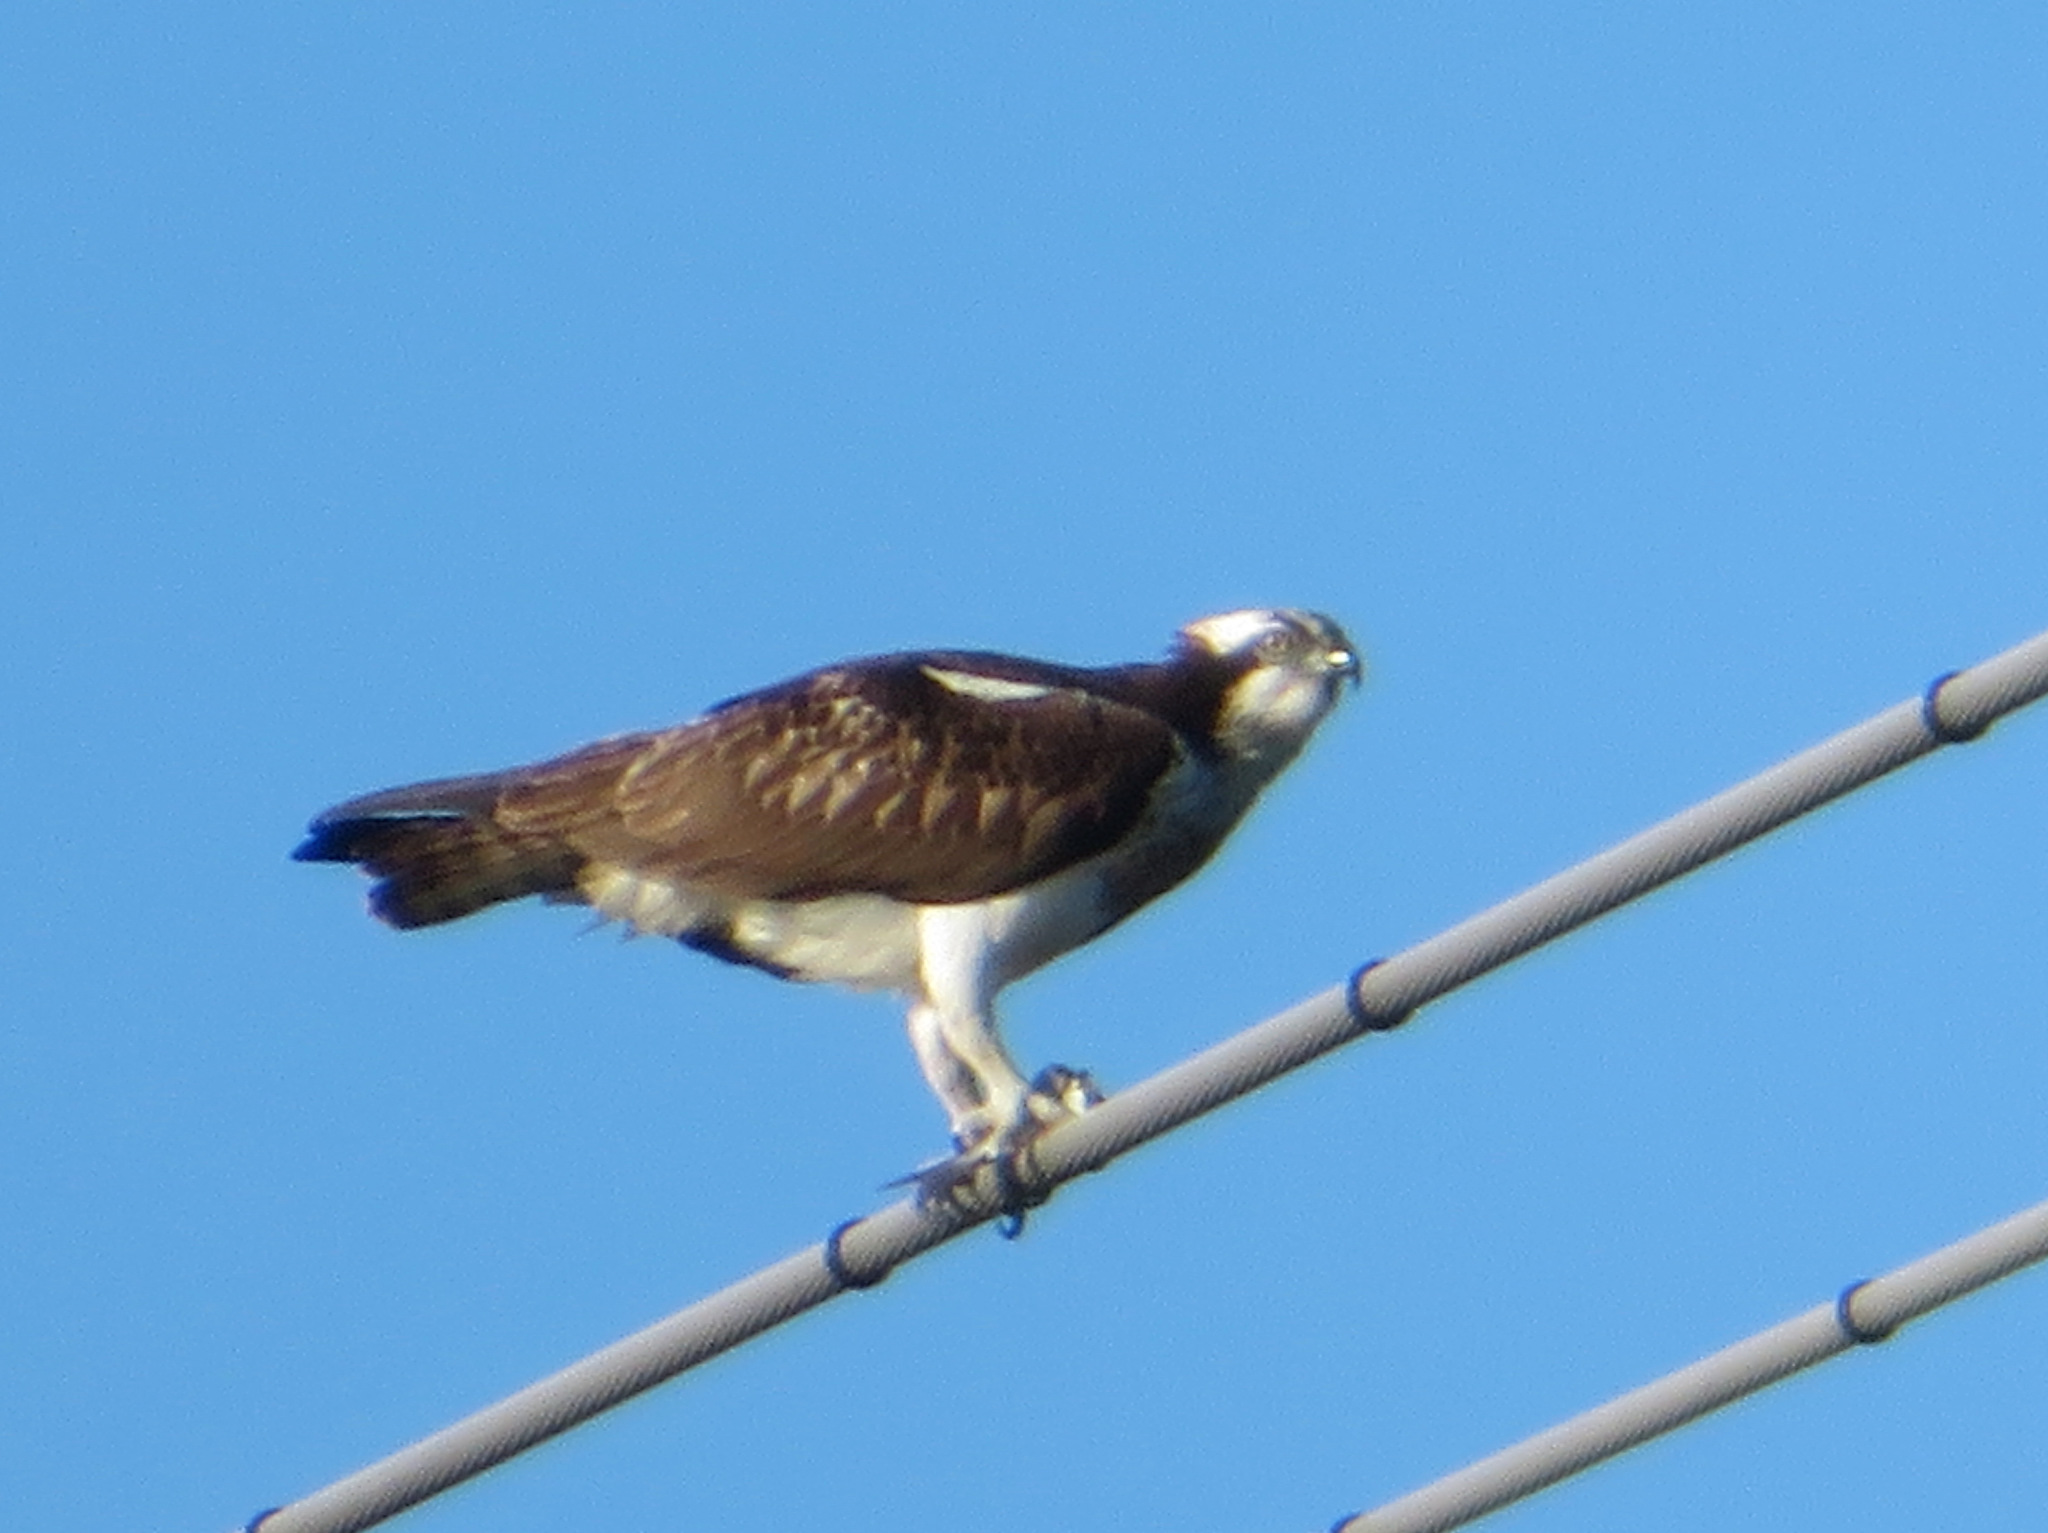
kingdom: Animalia
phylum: Chordata
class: Aves
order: Accipitriformes
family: Pandionidae
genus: Pandion
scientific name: Pandion haliaetus
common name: Osprey
